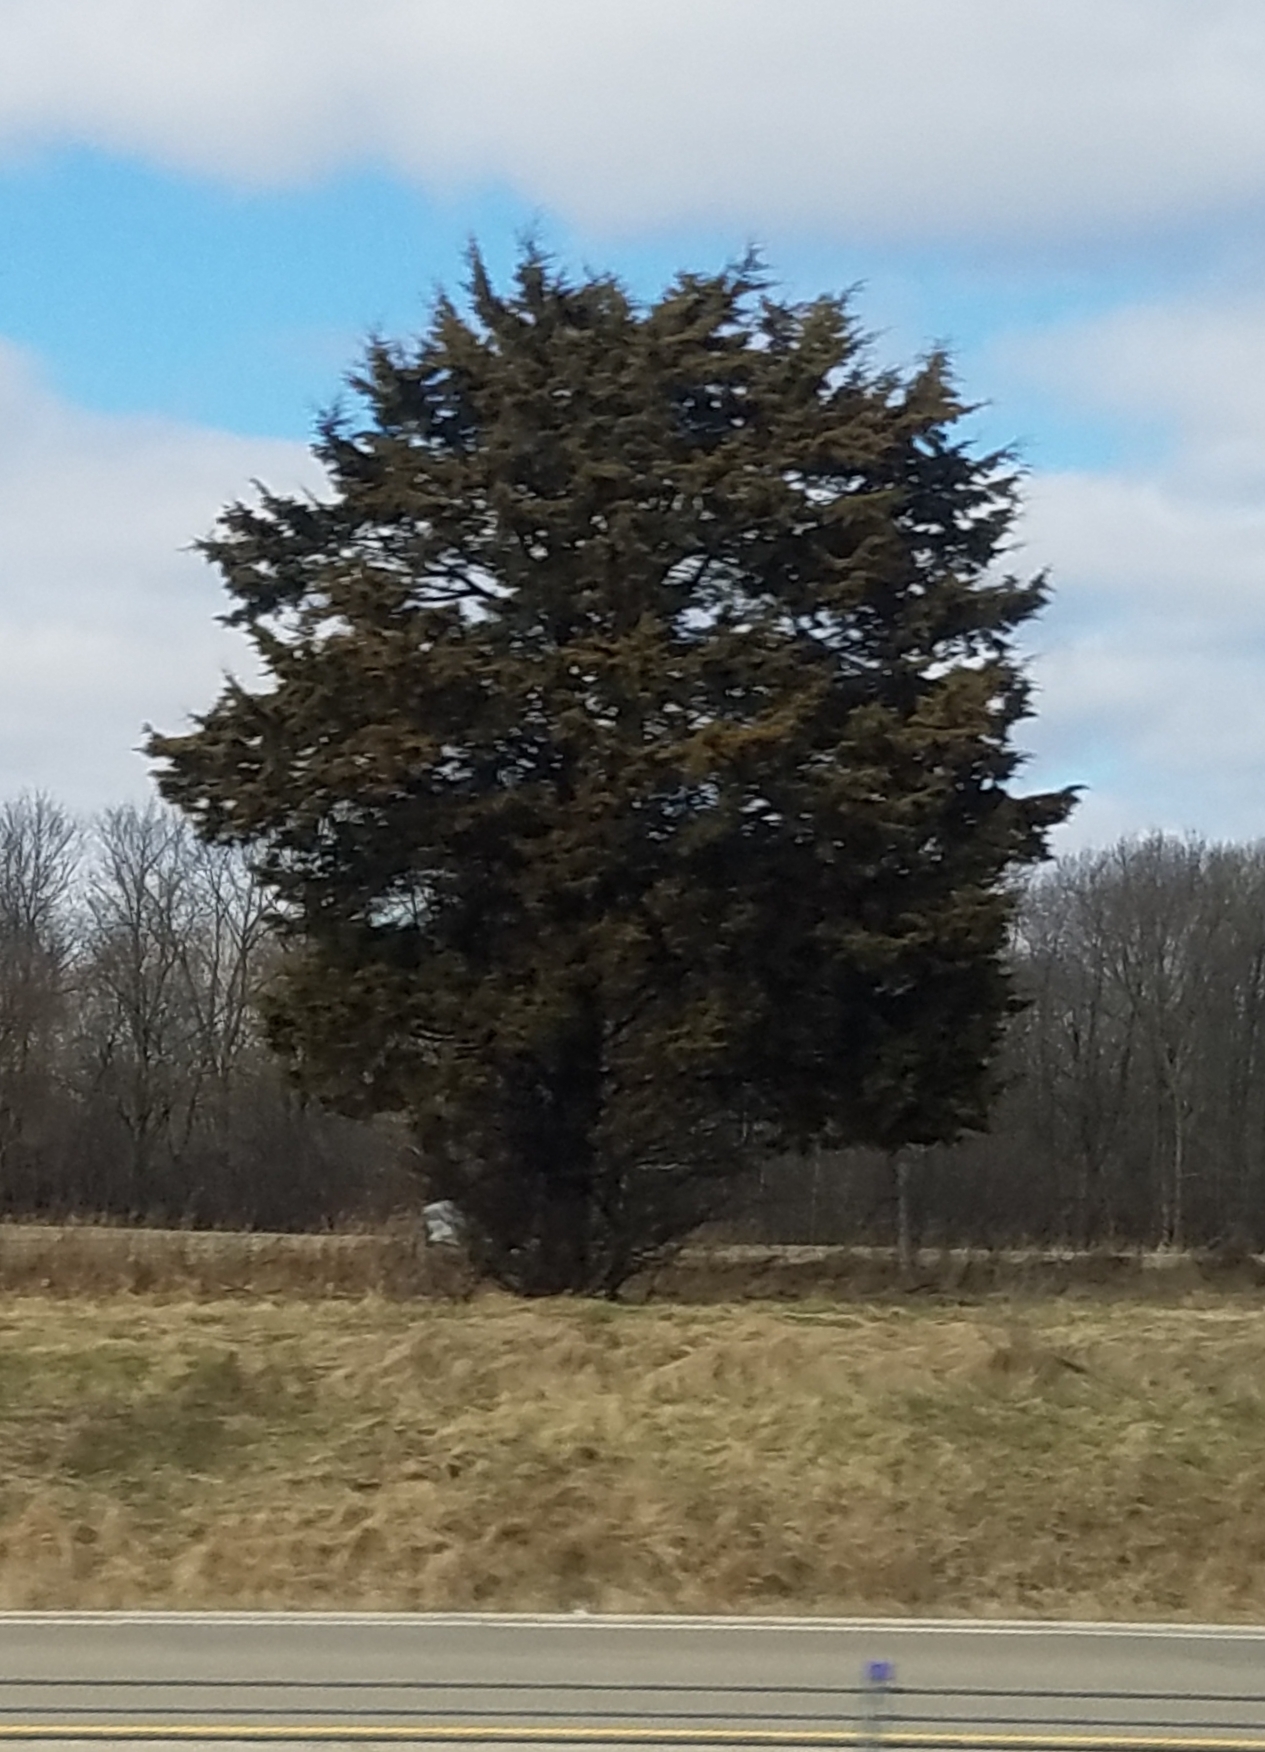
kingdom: Plantae
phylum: Tracheophyta
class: Pinopsida
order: Pinales
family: Cupressaceae
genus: Juniperus
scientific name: Juniperus virginiana
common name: Red juniper
